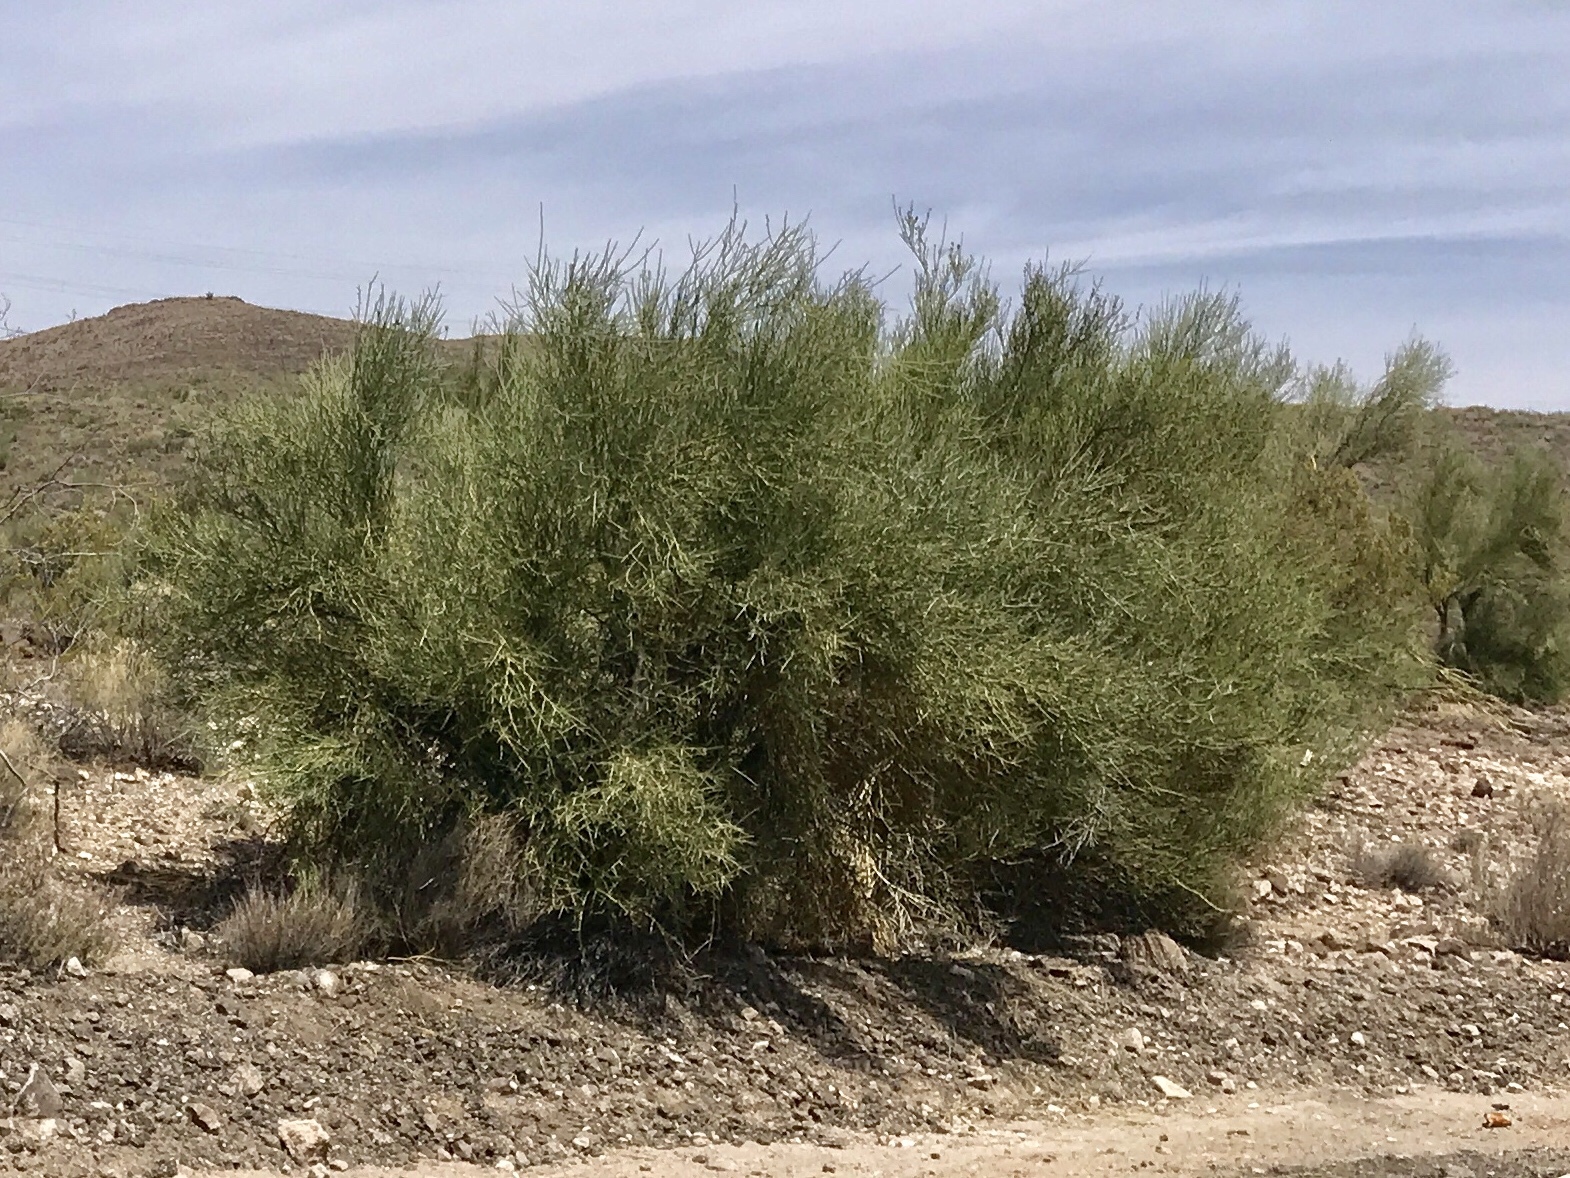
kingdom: Plantae
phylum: Tracheophyta
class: Magnoliopsida
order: Celastrales
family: Celastraceae
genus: Canotia
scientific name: Canotia holacantha
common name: Crucifixion thorns
